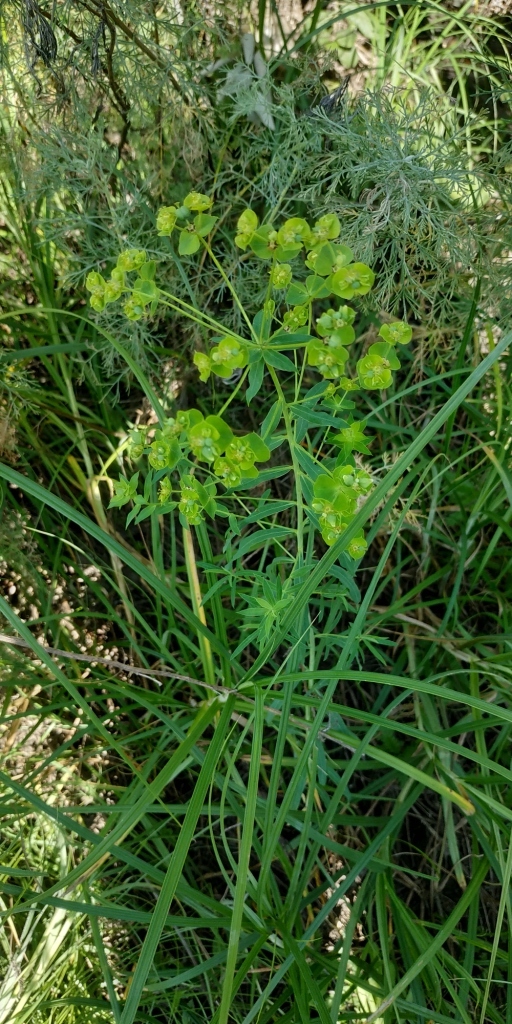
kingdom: Plantae
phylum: Tracheophyta
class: Magnoliopsida
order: Malpighiales
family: Euphorbiaceae
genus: Euphorbia
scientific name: Euphorbia virgata
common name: Leafy spurge
